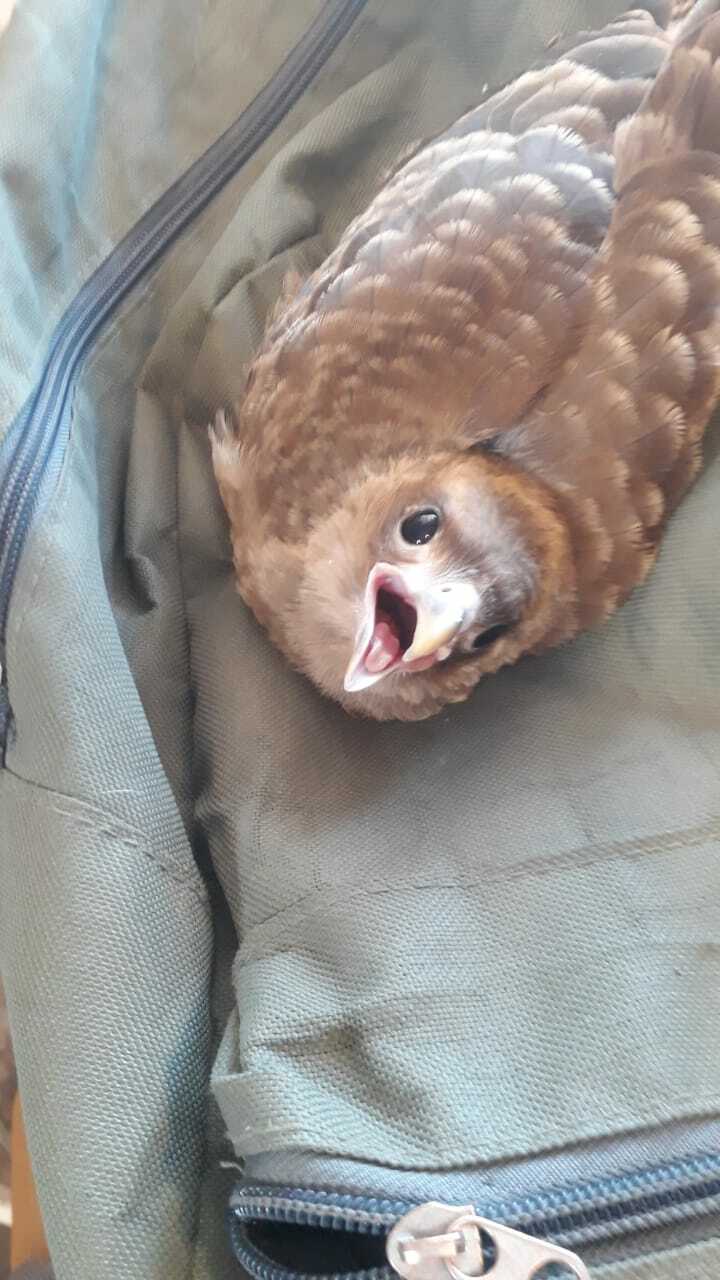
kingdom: Animalia
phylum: Chordata
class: Aves
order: Falconiformes
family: Falconidae
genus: Daptrius
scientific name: Daptrius
